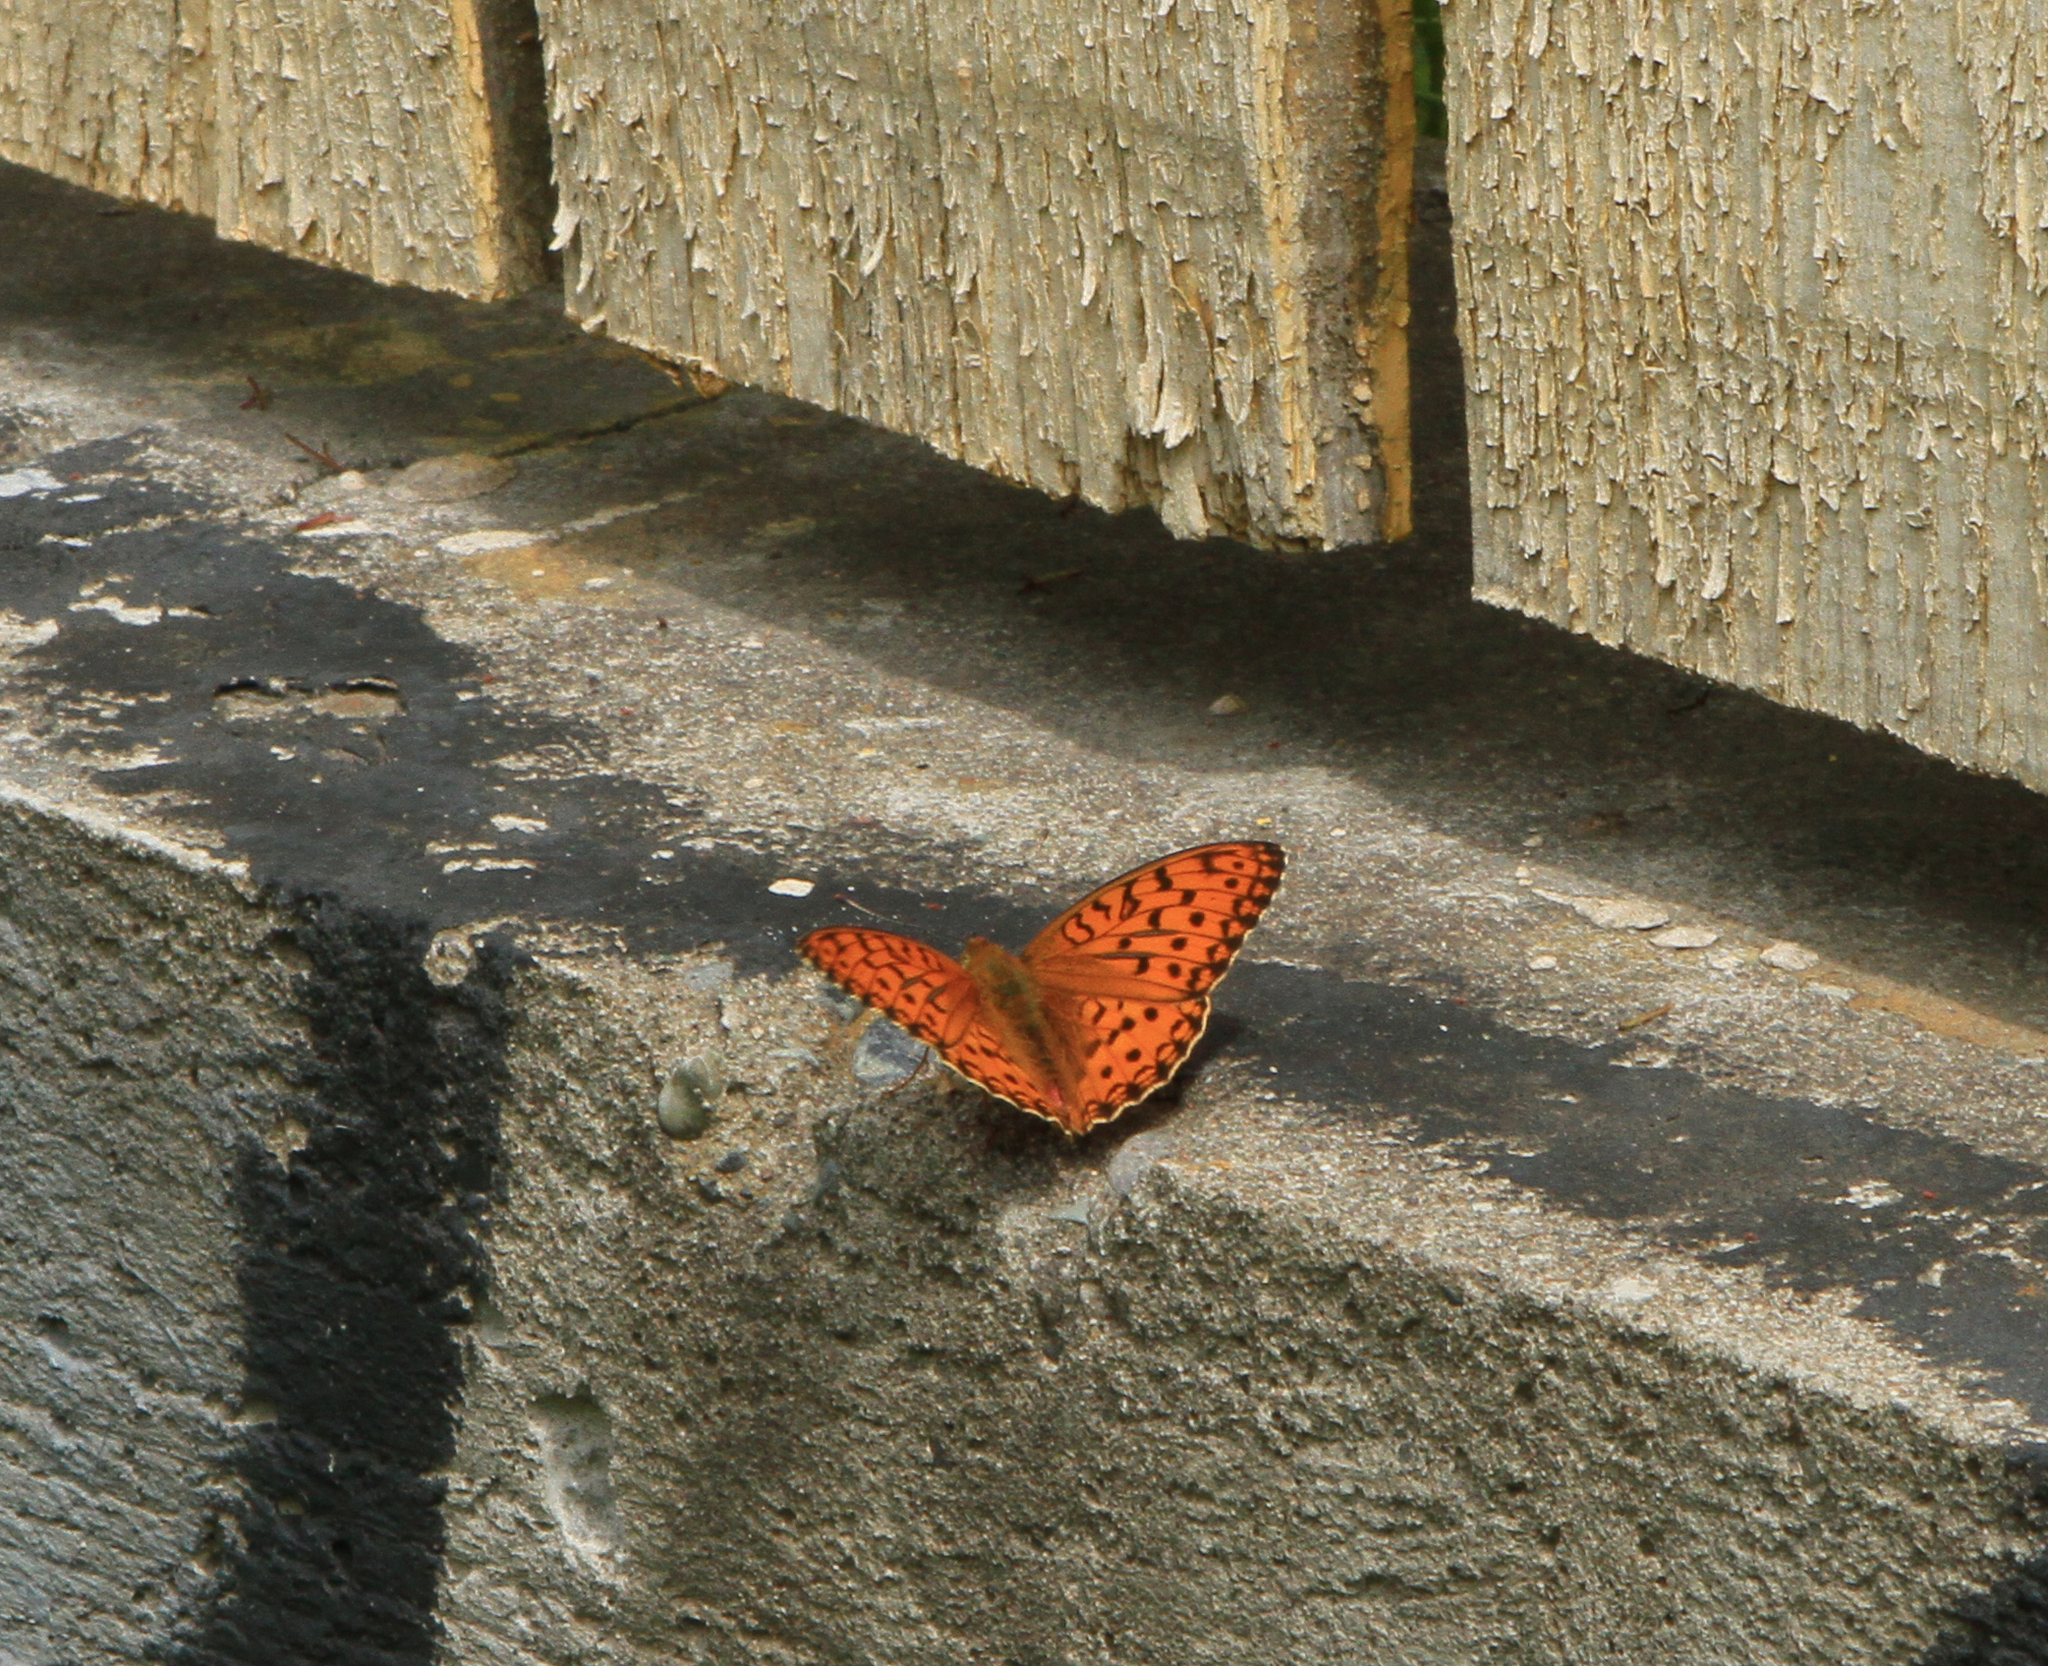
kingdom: Animalia
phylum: Arthropoda
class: Insecta
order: Lepidoptera
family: Nymphalidae
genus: Fabriciana
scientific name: Fabriciana adippe
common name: High brown fritillary
